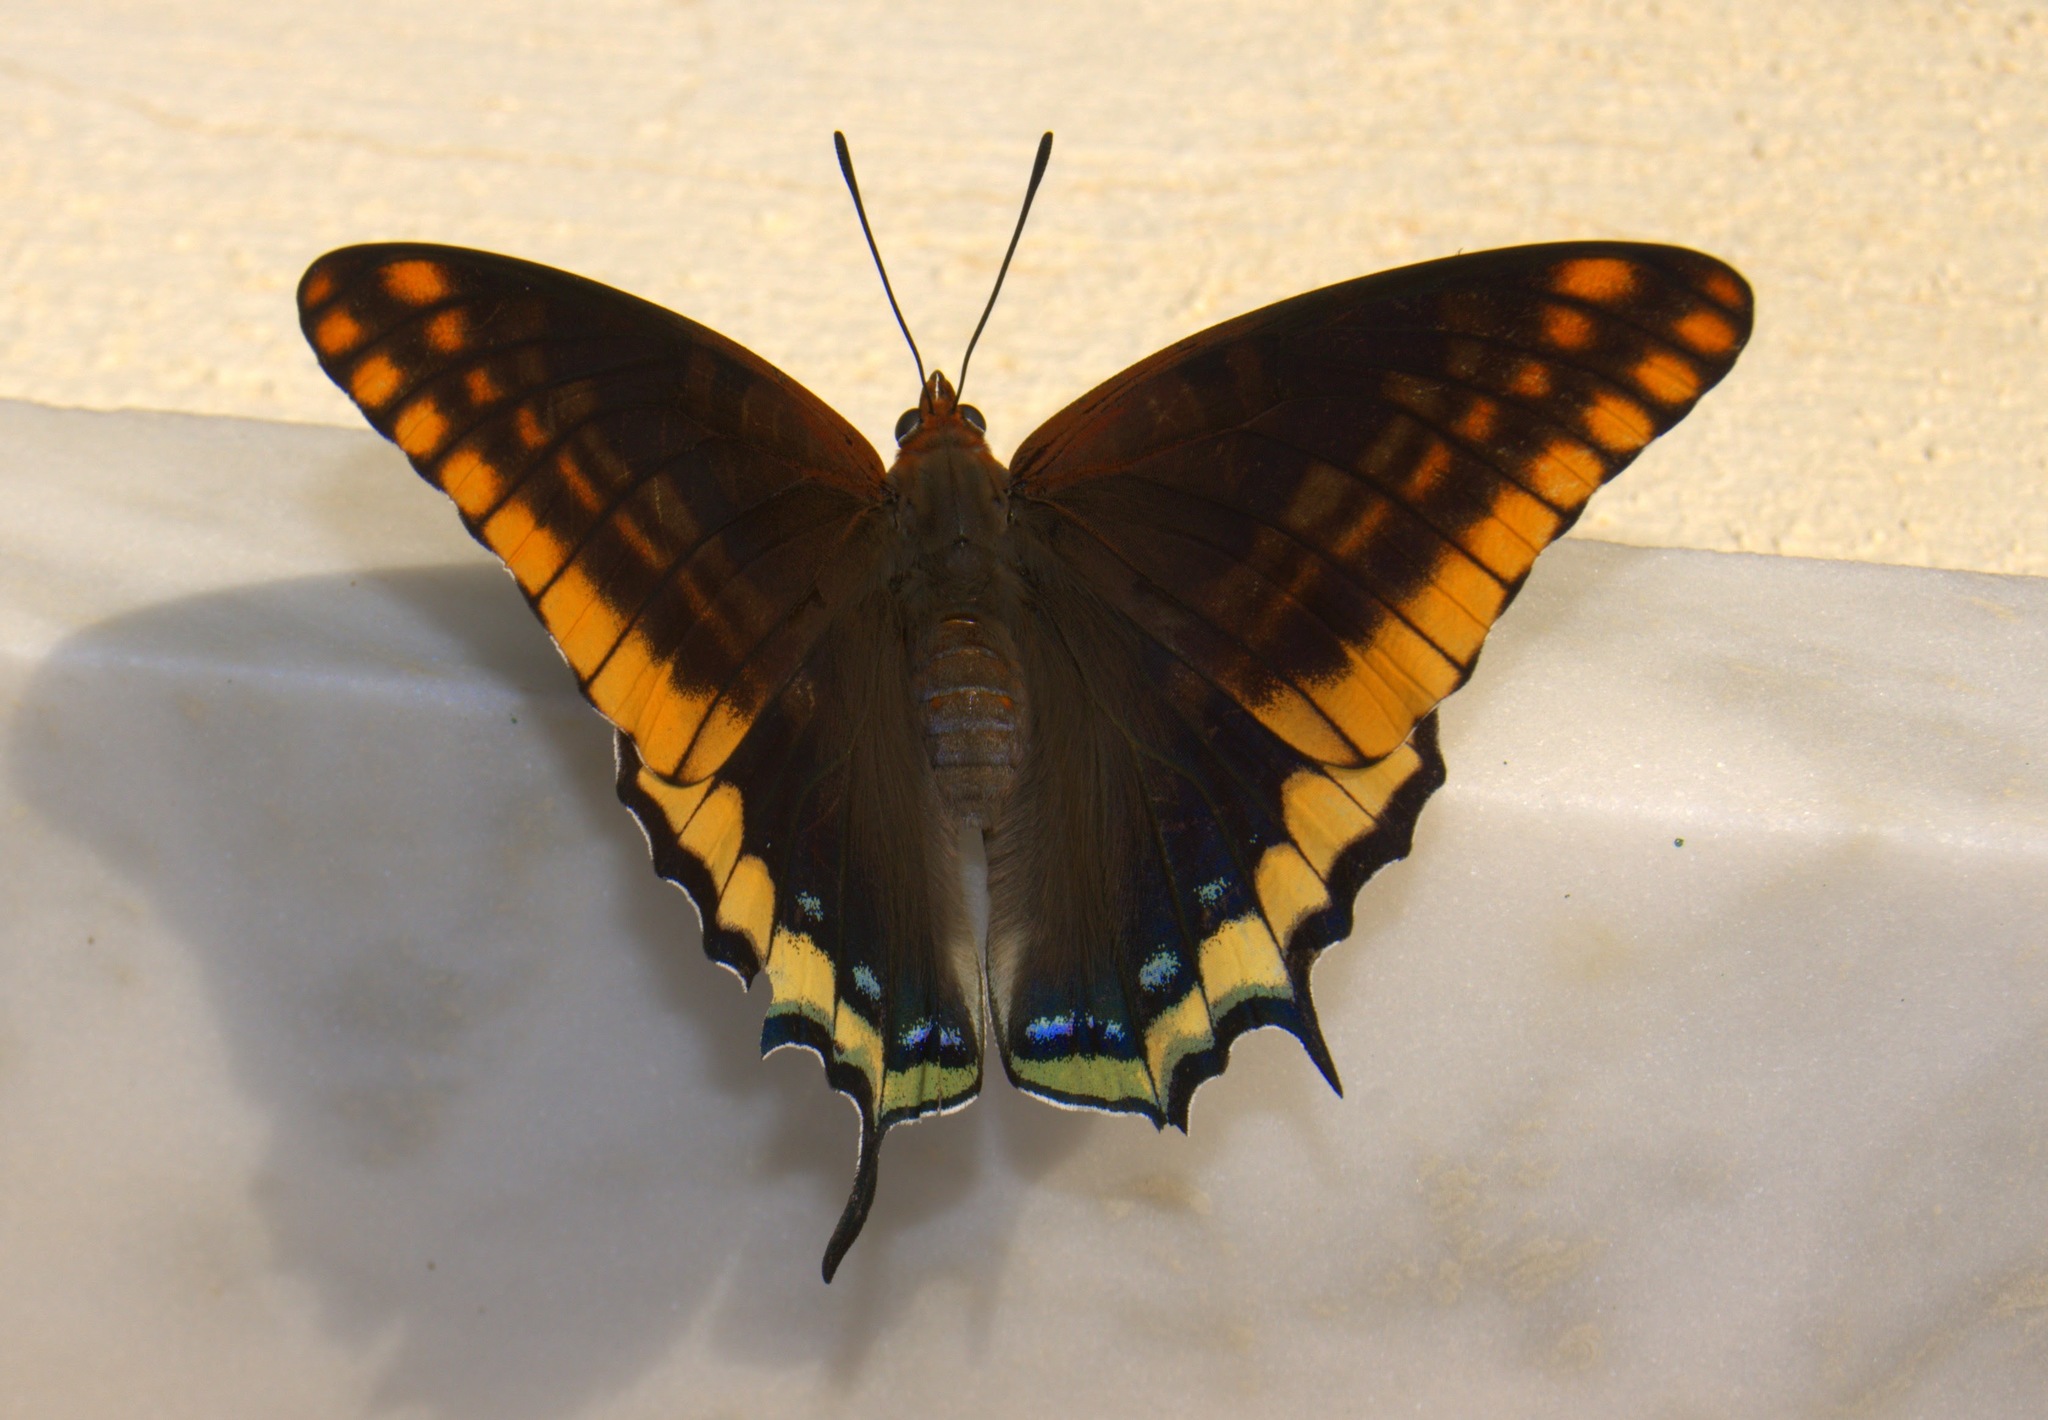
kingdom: Animalia
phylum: Arthropoda
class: Insecta
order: Lepidoptera
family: Nymphalidae
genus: Charaxes
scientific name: Charaxes jasius
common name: Two tailed pasha
